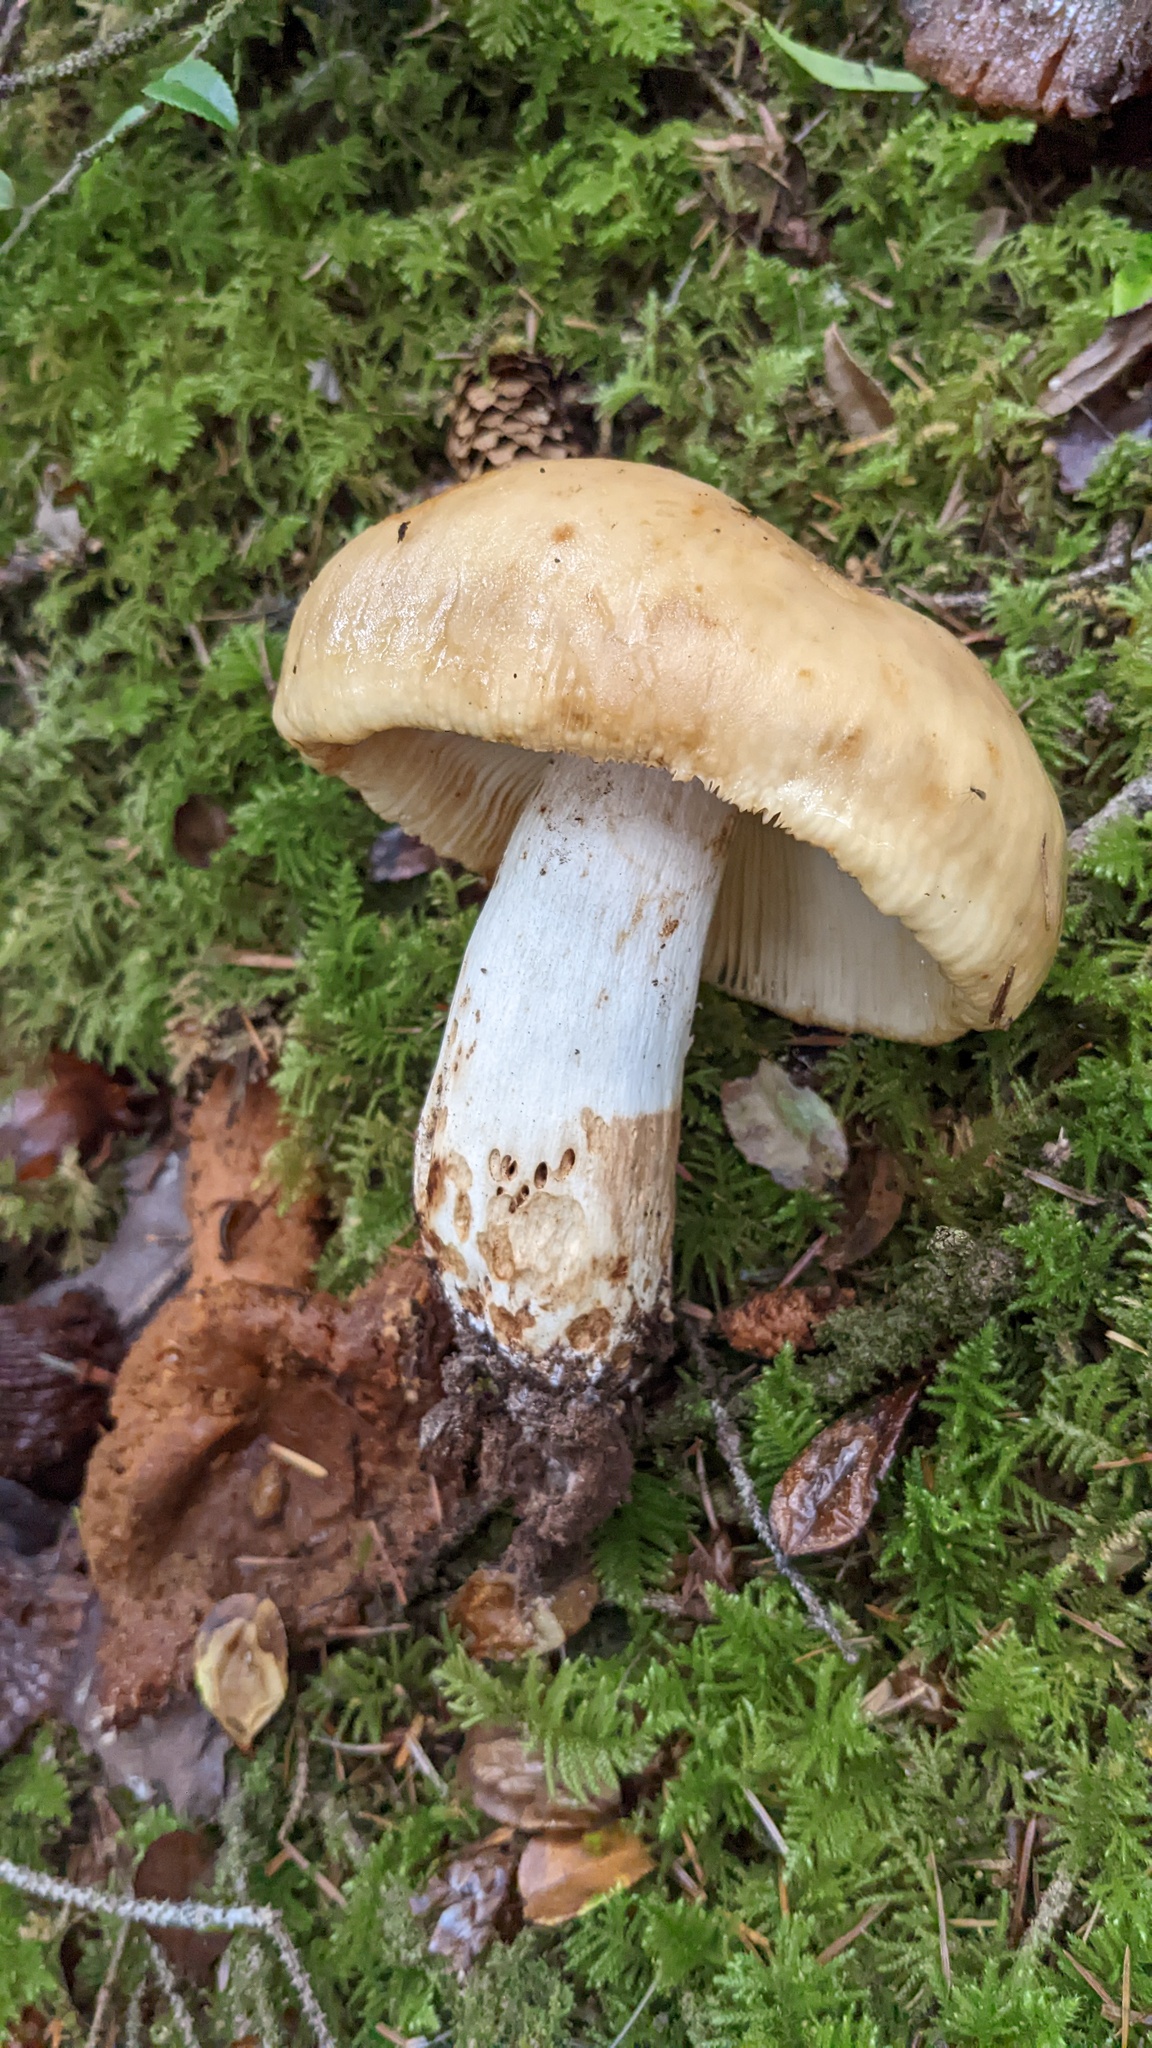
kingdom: Fungi
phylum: Basidiomycota
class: Agaricomycetes
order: Russulales
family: Russulaceae
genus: Russula
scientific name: Russula fragrantissima
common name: Almond-scented russula
